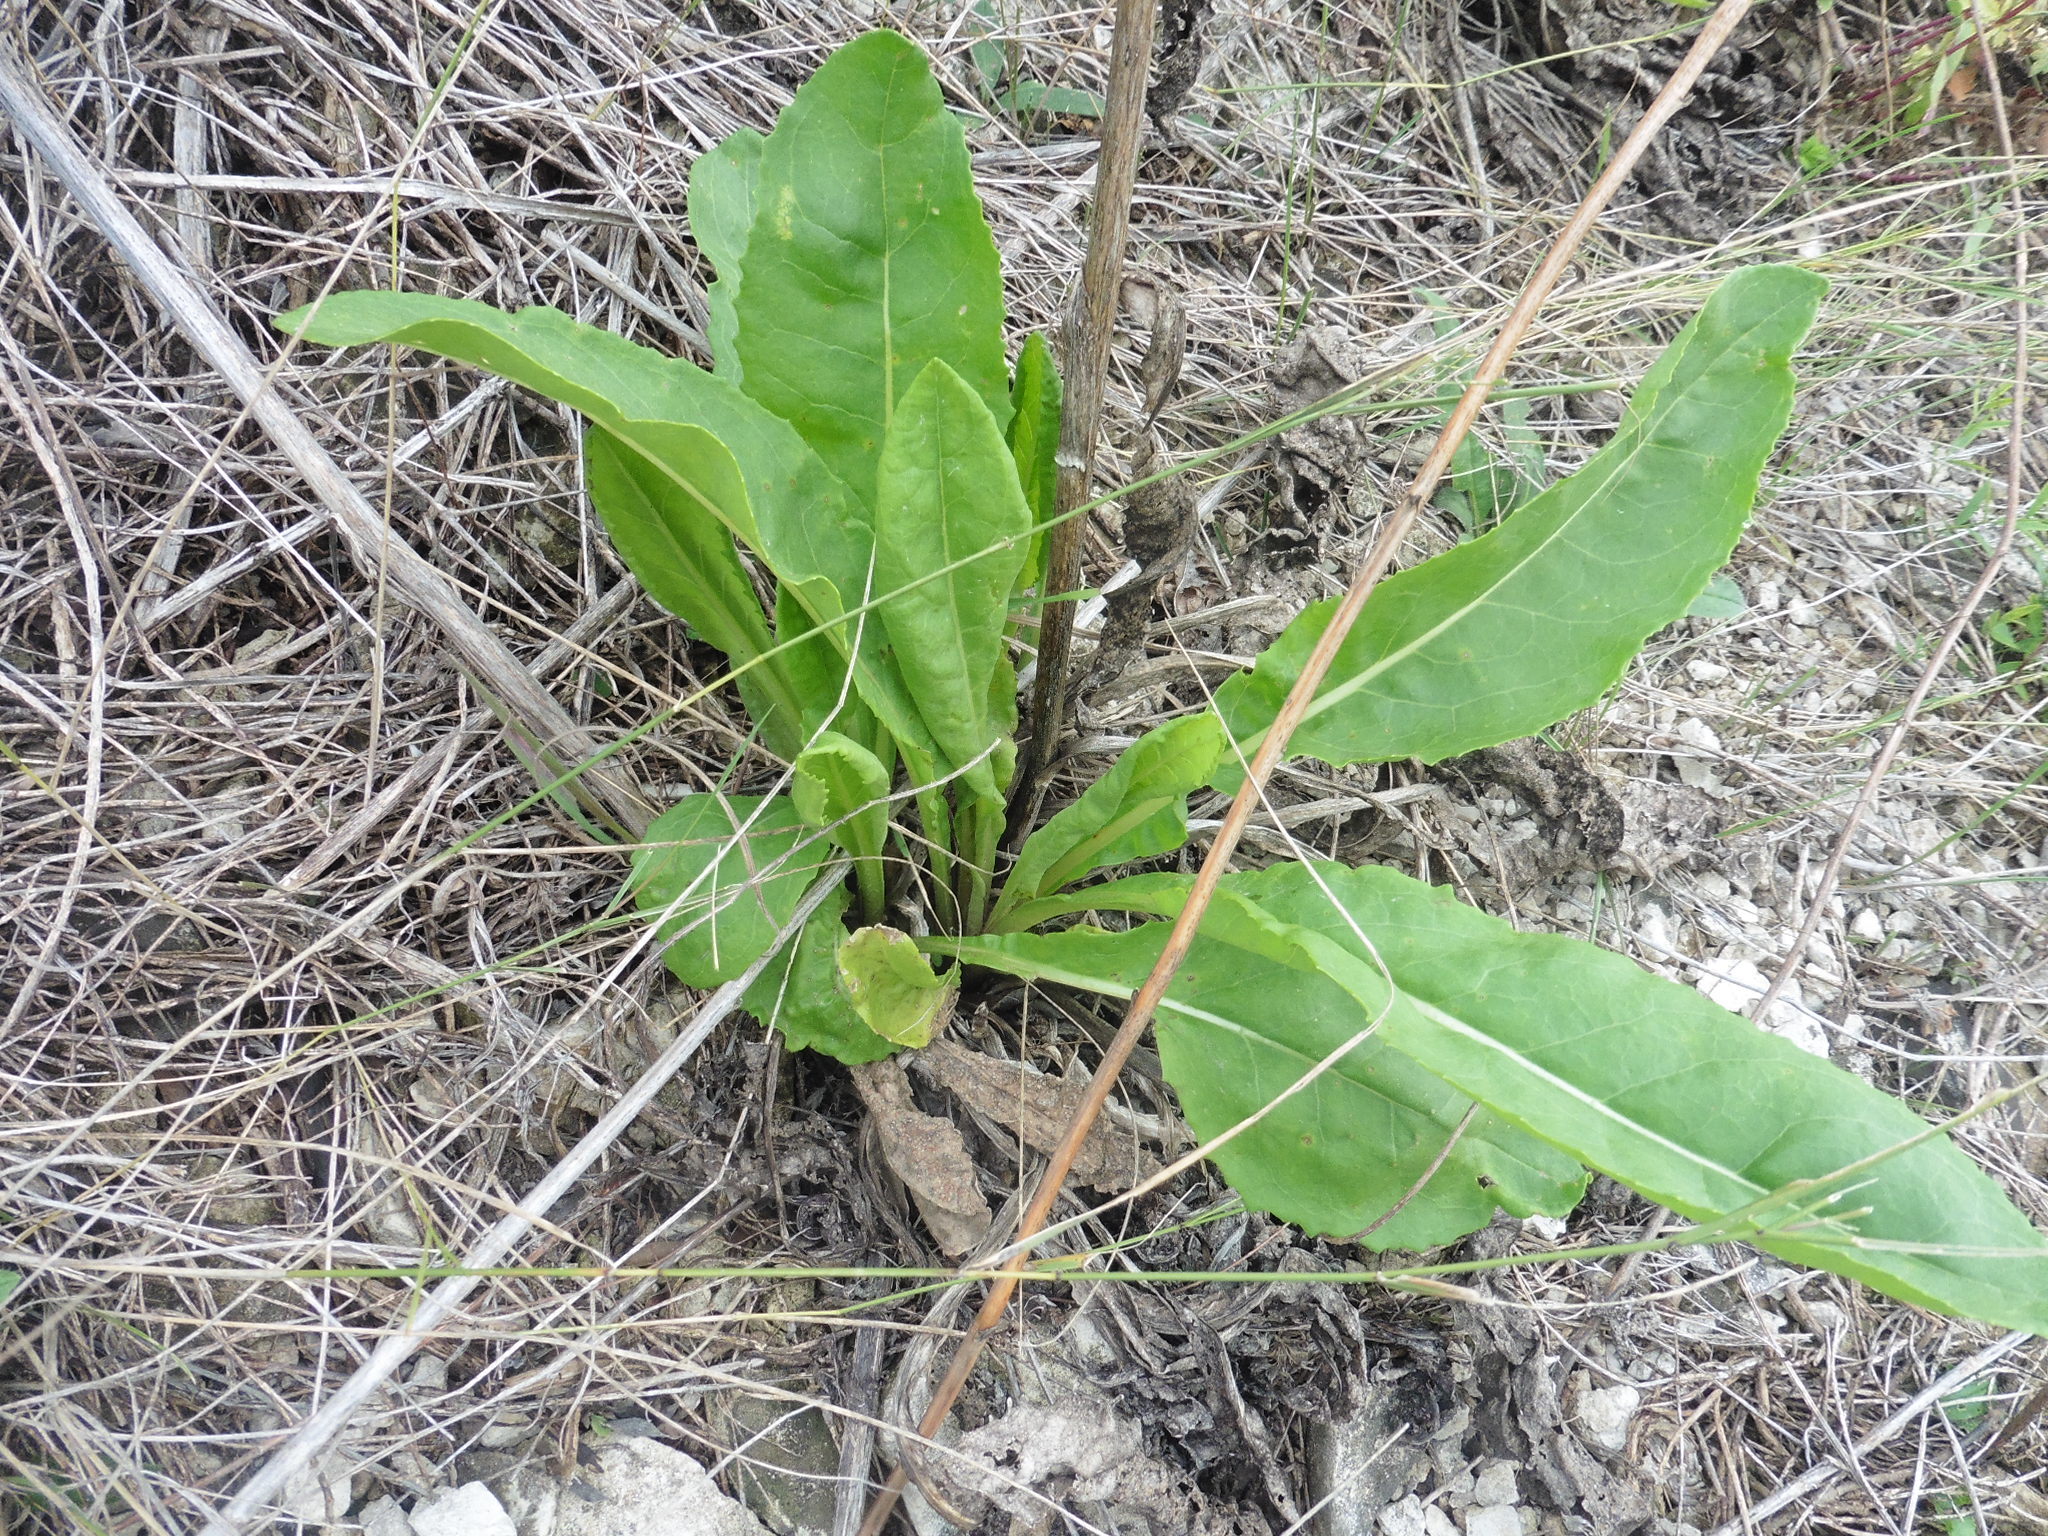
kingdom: Plantae
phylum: Tracheophyta
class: Magnoliopsida
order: Asterales
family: Asteraceae
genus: Senecio
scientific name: Senecio doria
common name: Golden ragwort
